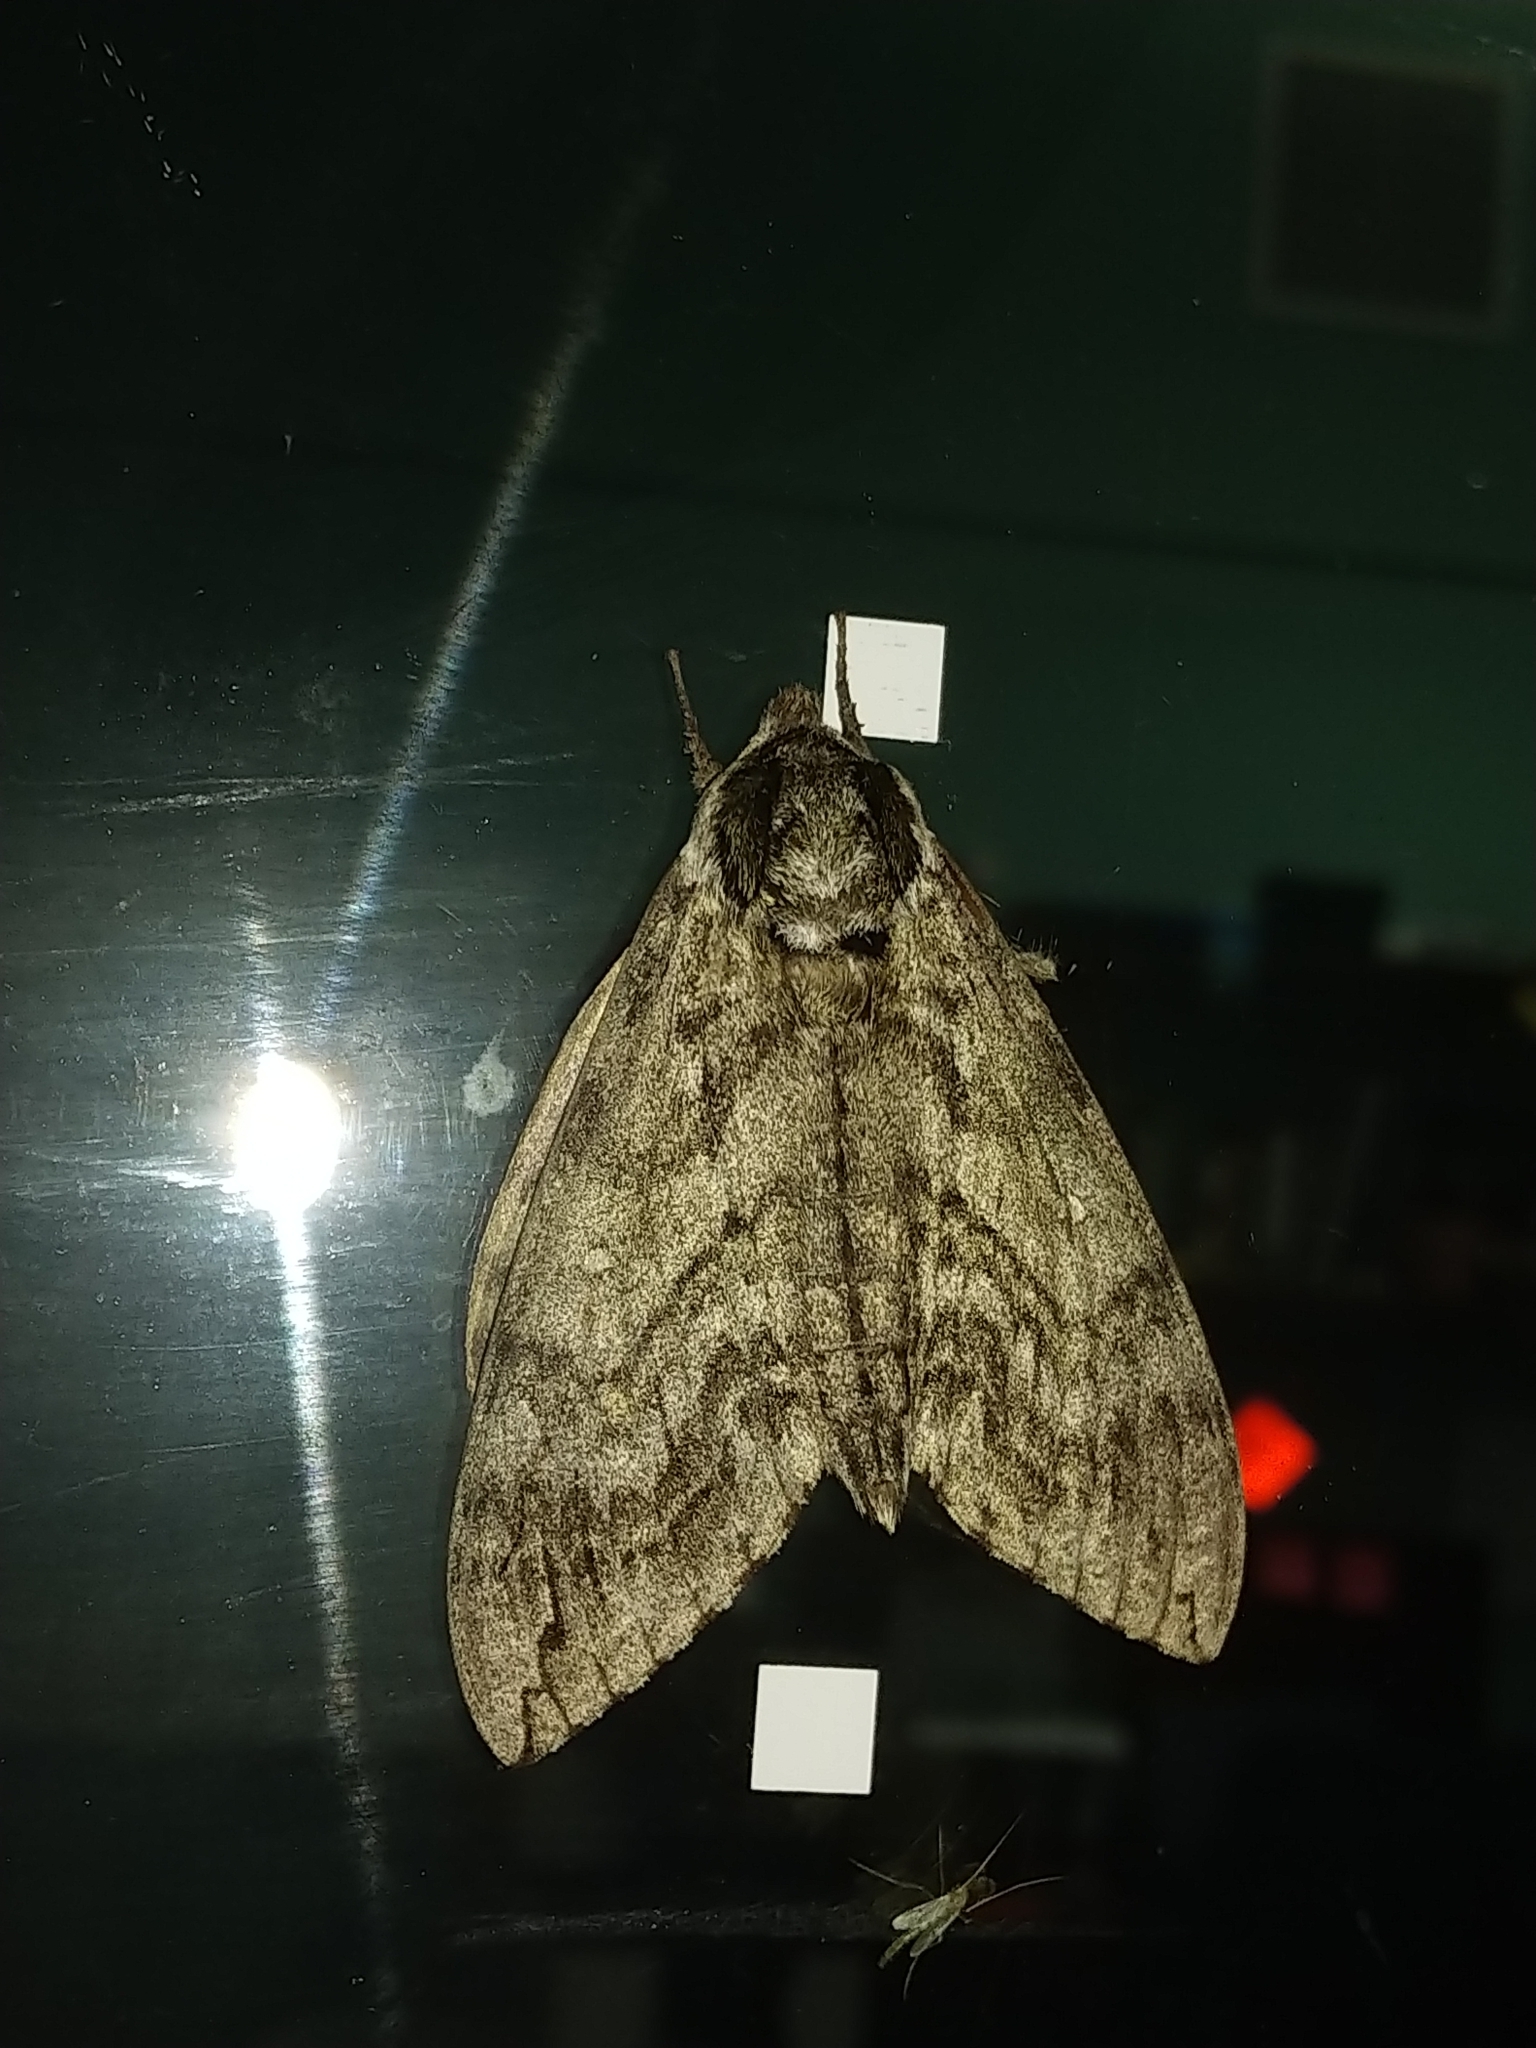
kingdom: Animalia
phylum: Arthropoda
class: Insecta
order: Lepidoptera
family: Sphingidae
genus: Ceratomia
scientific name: Ceratomia undulosa
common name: Waved sphinx
